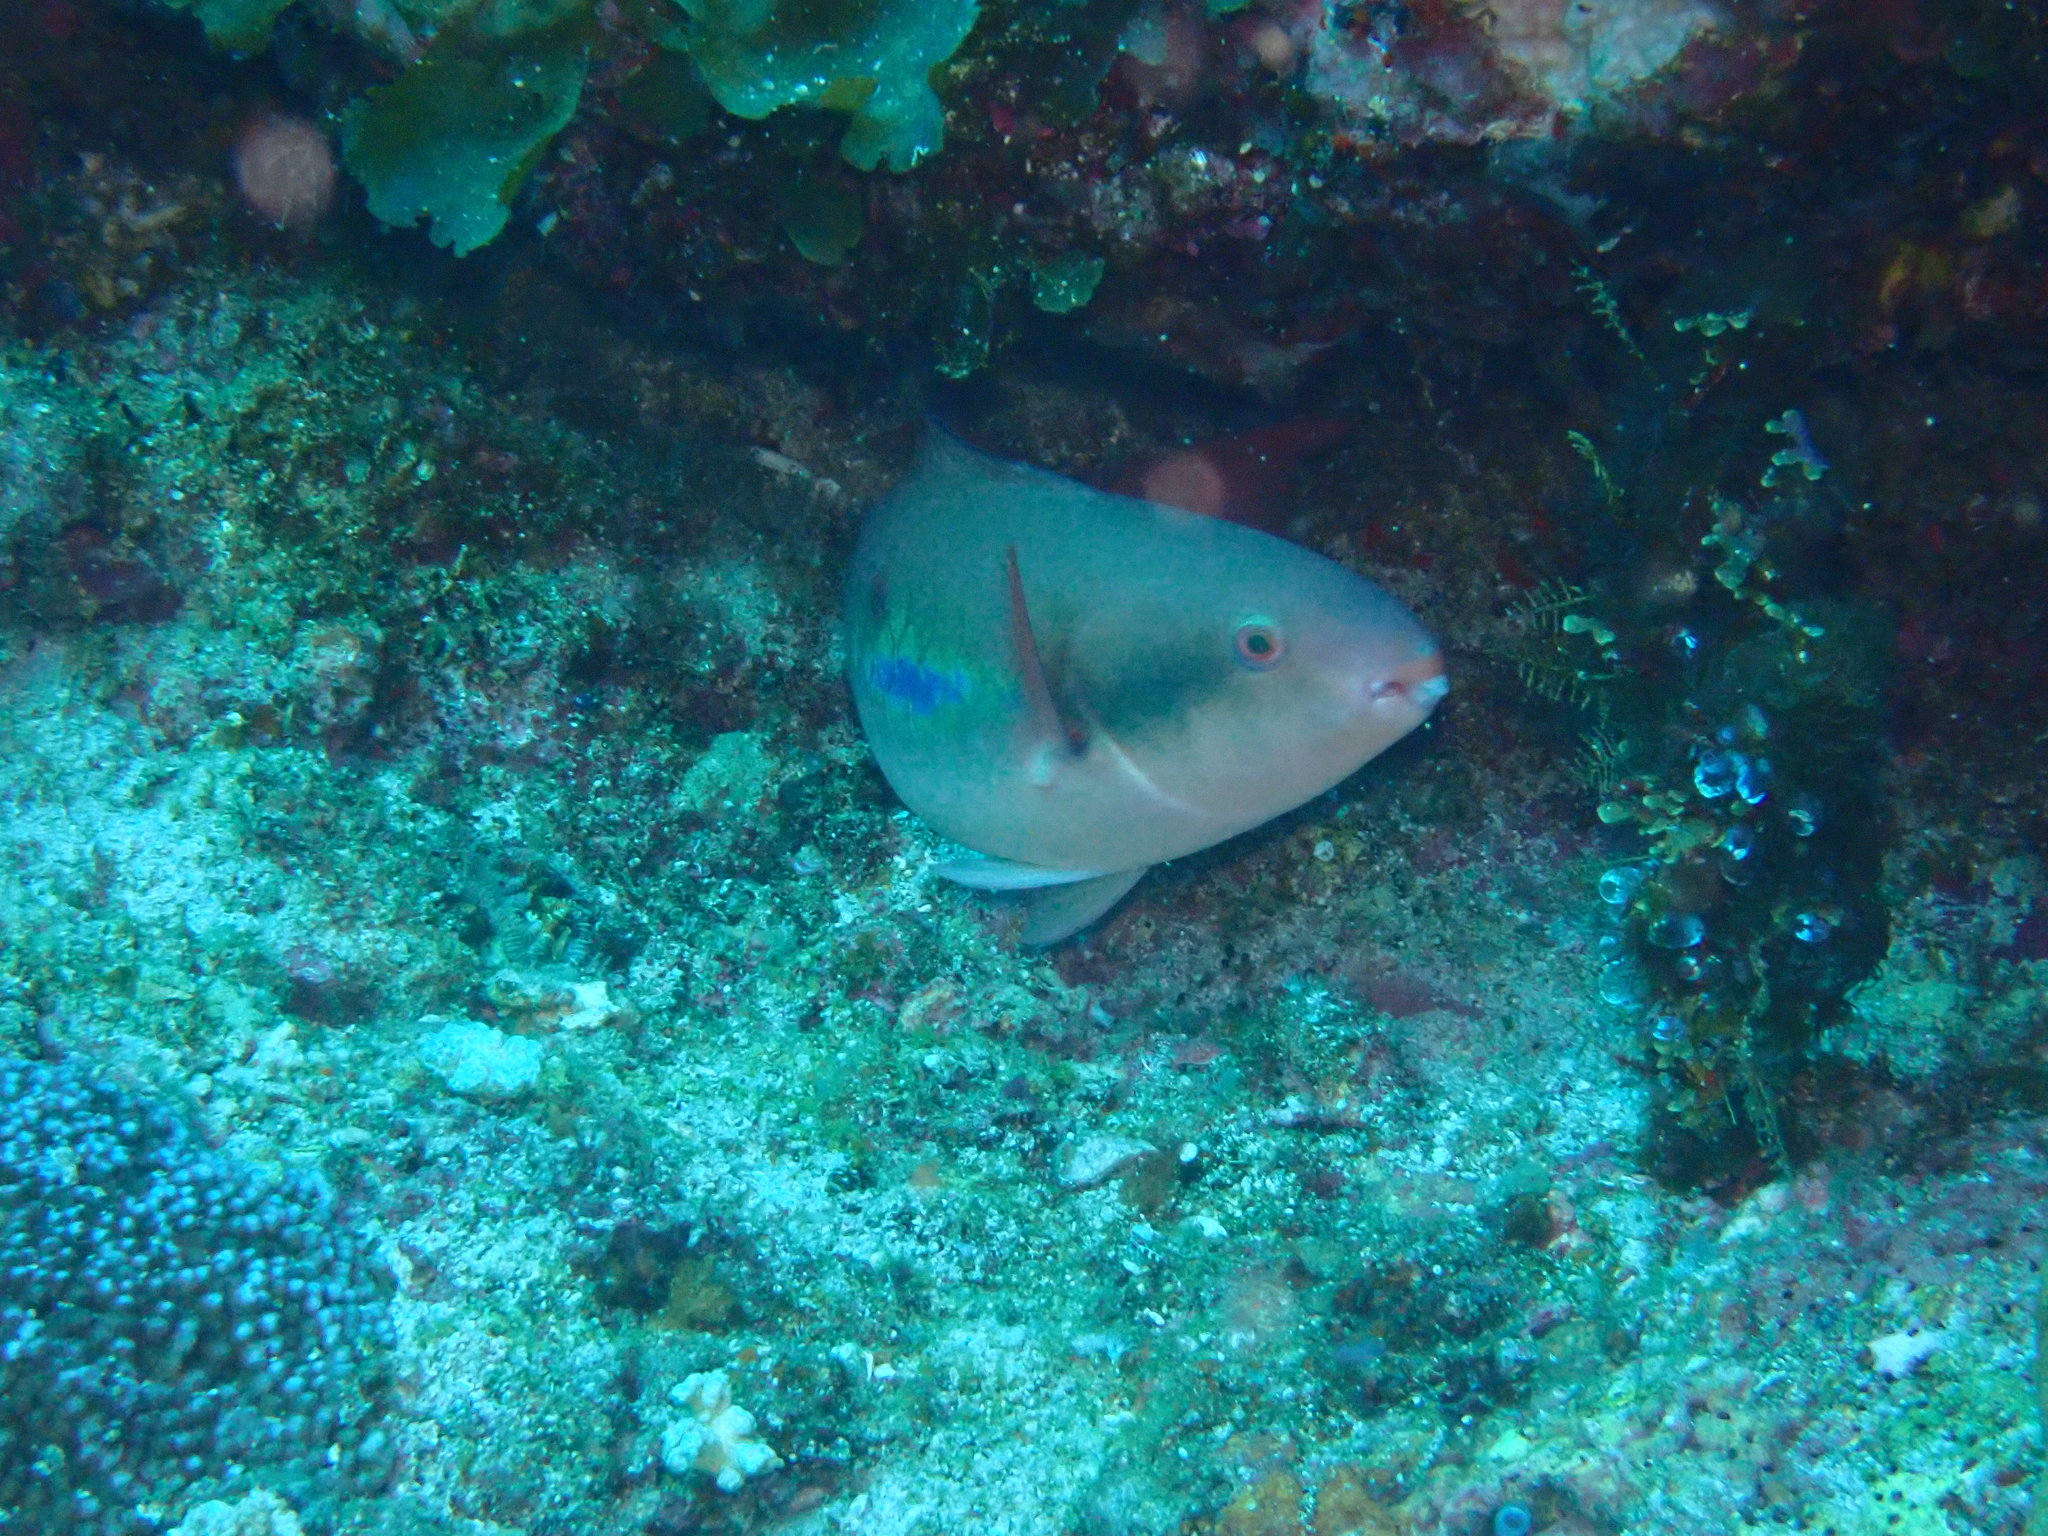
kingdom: Animalia
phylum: Chordata
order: Perciformes
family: Scaridae
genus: Scarus
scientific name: Scarus forsteni
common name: Forsten's parrotfish
